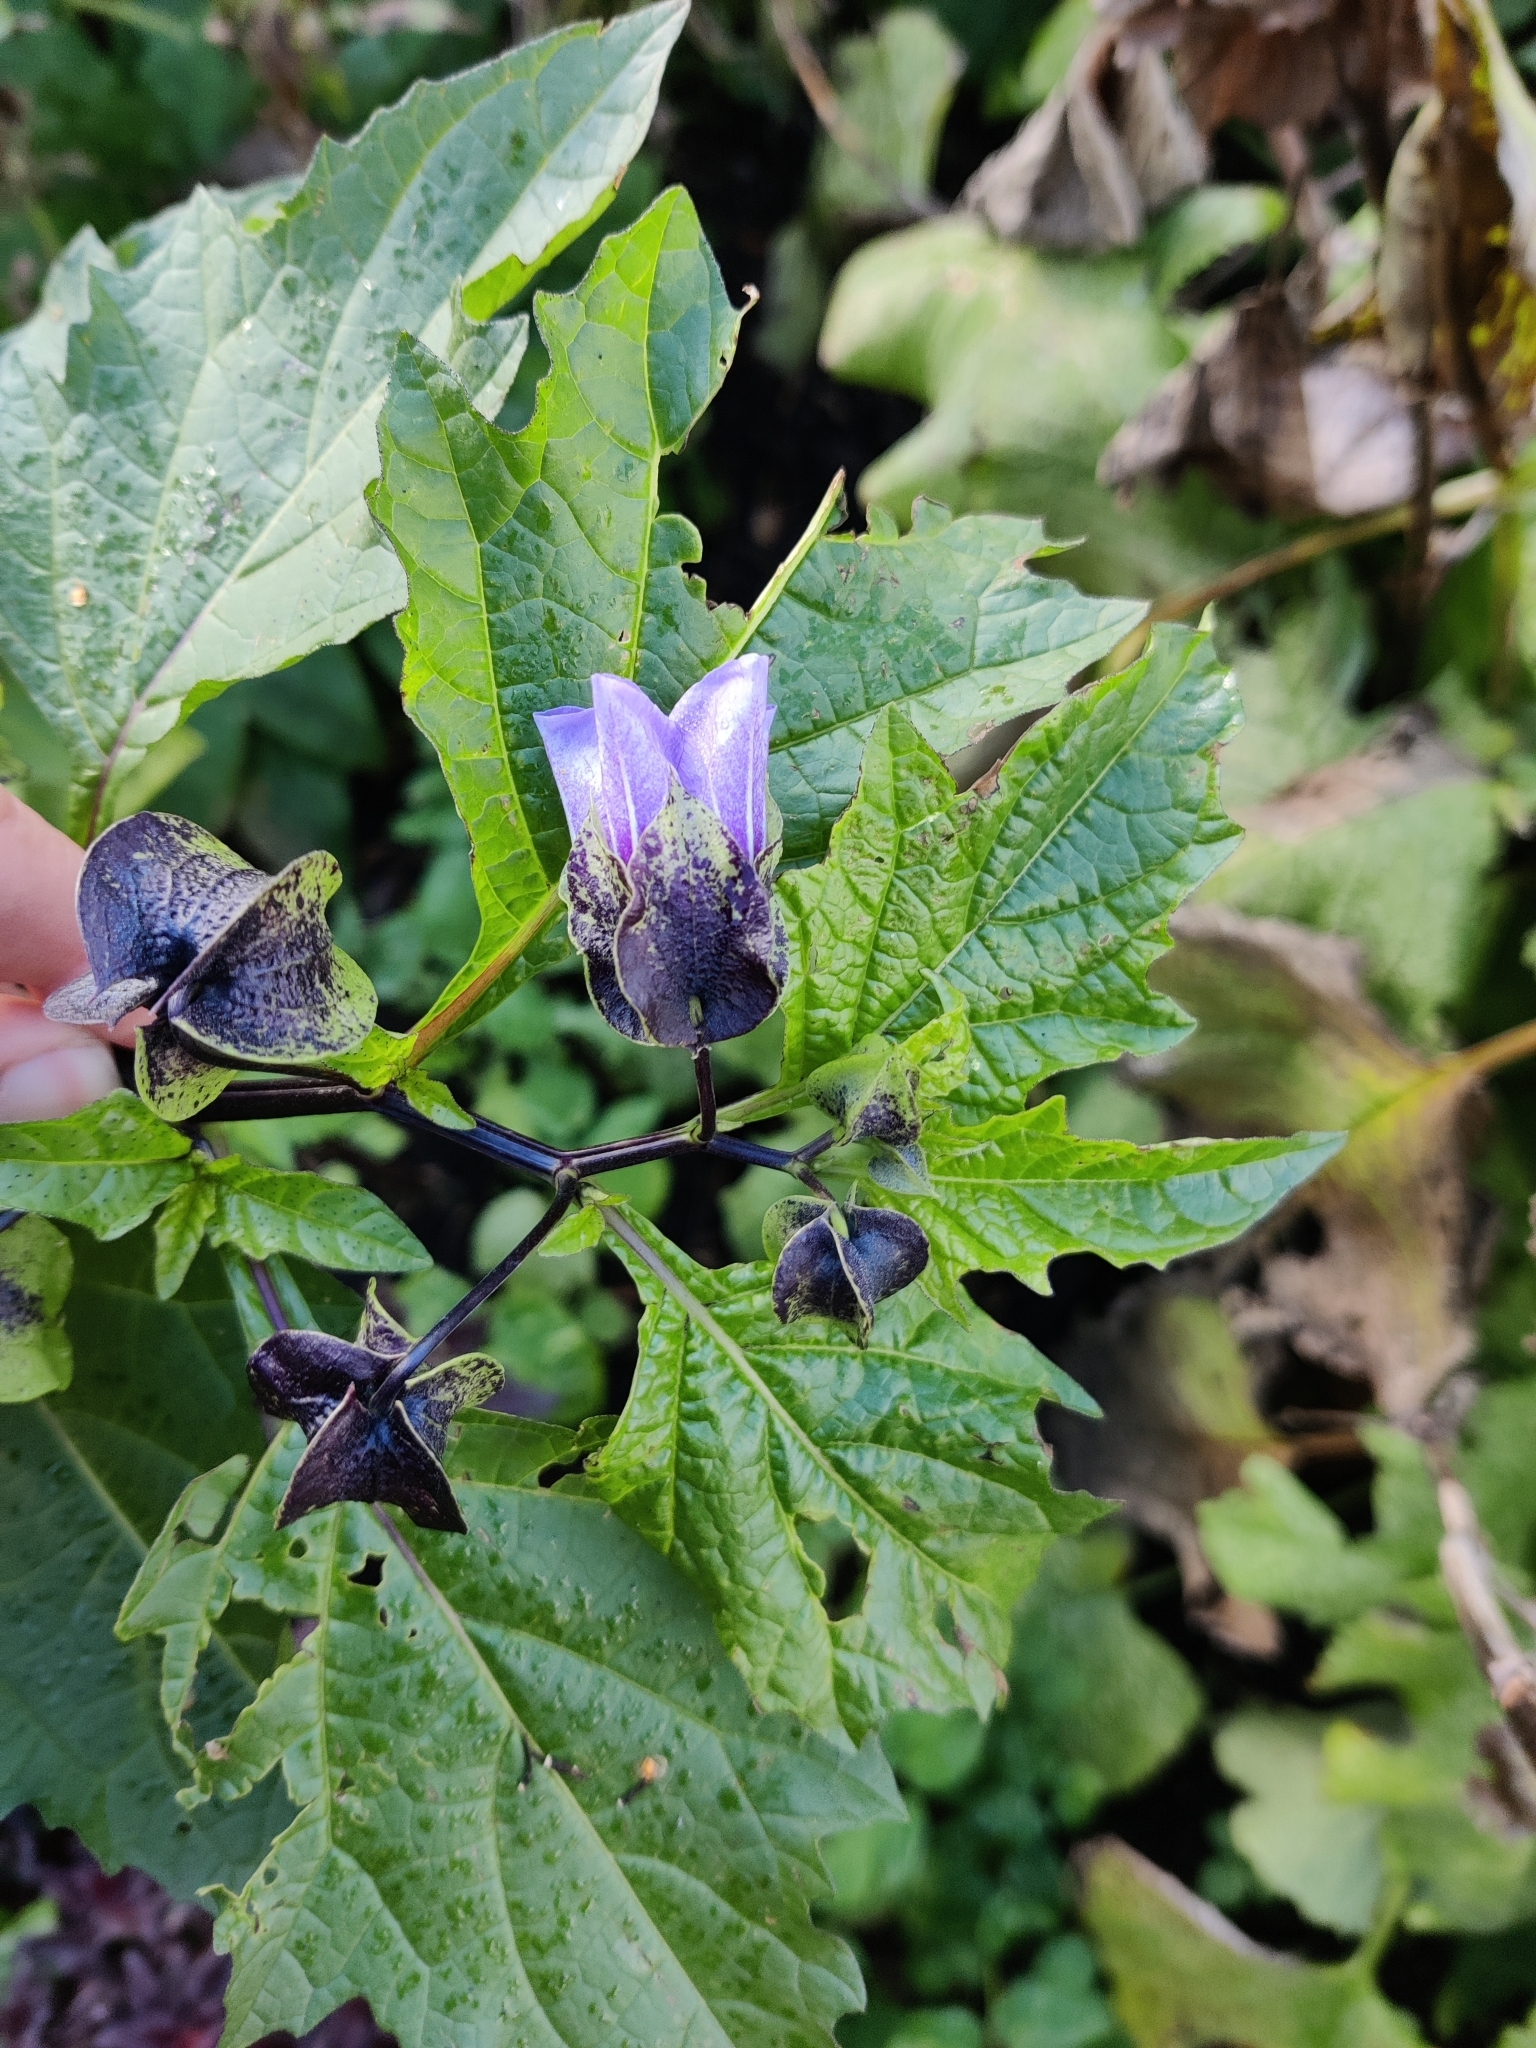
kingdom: Plantae
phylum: Tracheophyta
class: Magnoliopsida
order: Solanales
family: Solanaceae
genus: Nicandra
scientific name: Nicandra physalodes
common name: Apple-of-peru
